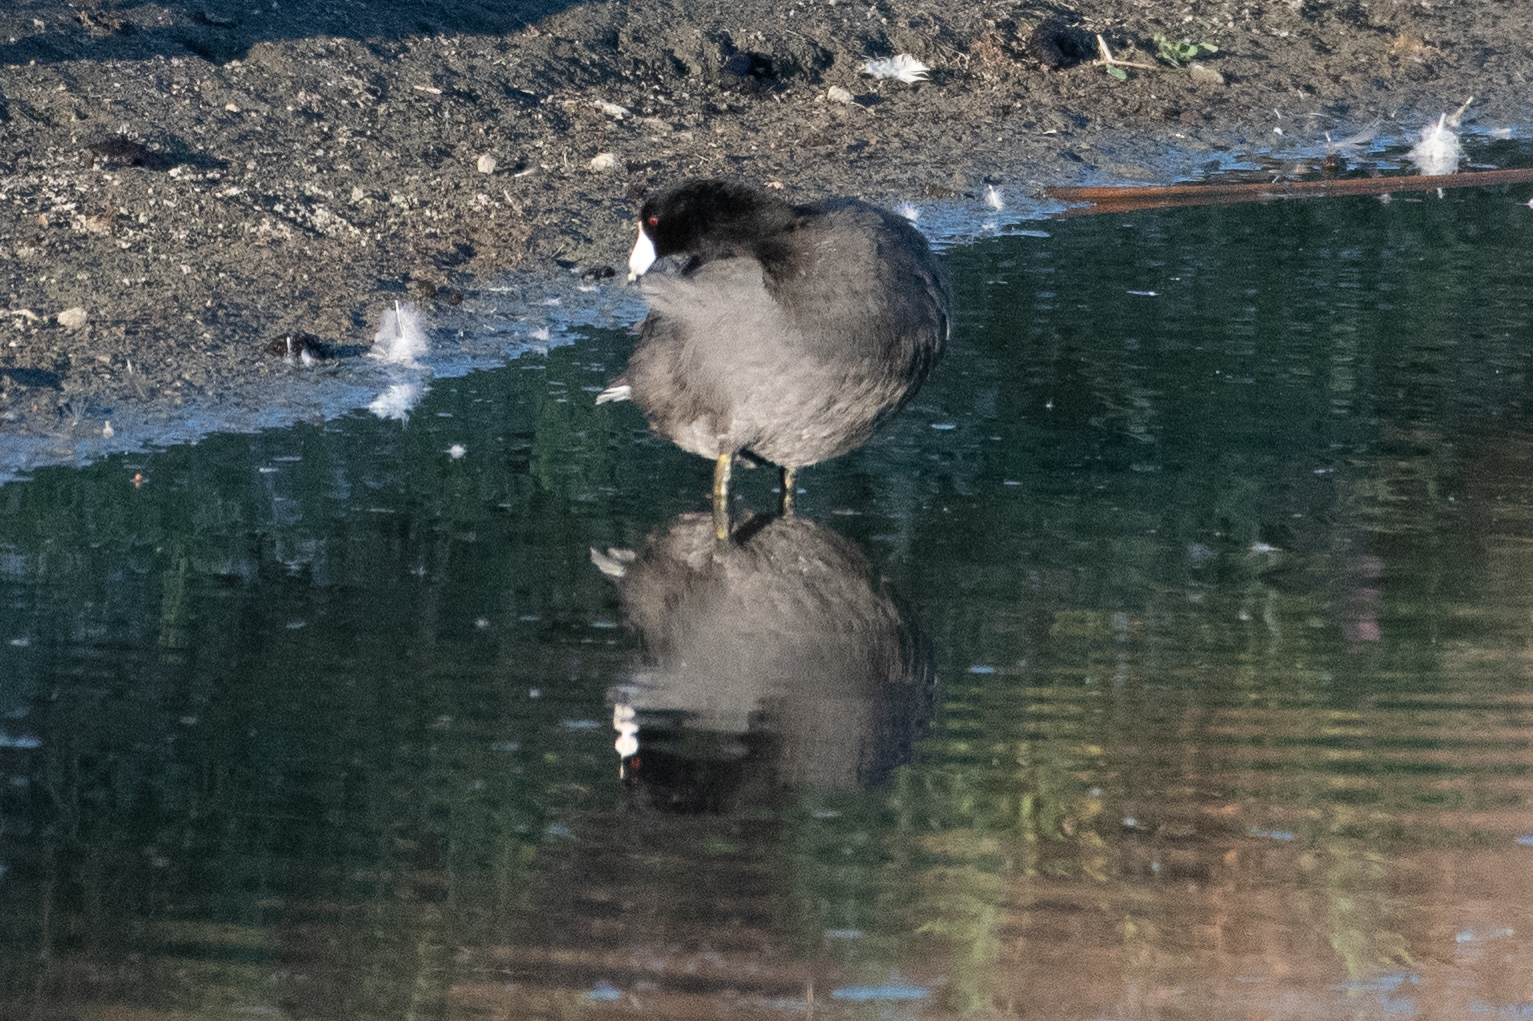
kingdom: Animalia
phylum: Chordata
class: Aves
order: Gruiformes
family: Rallidae
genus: Fulica
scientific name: Fulica americana
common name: American coot
